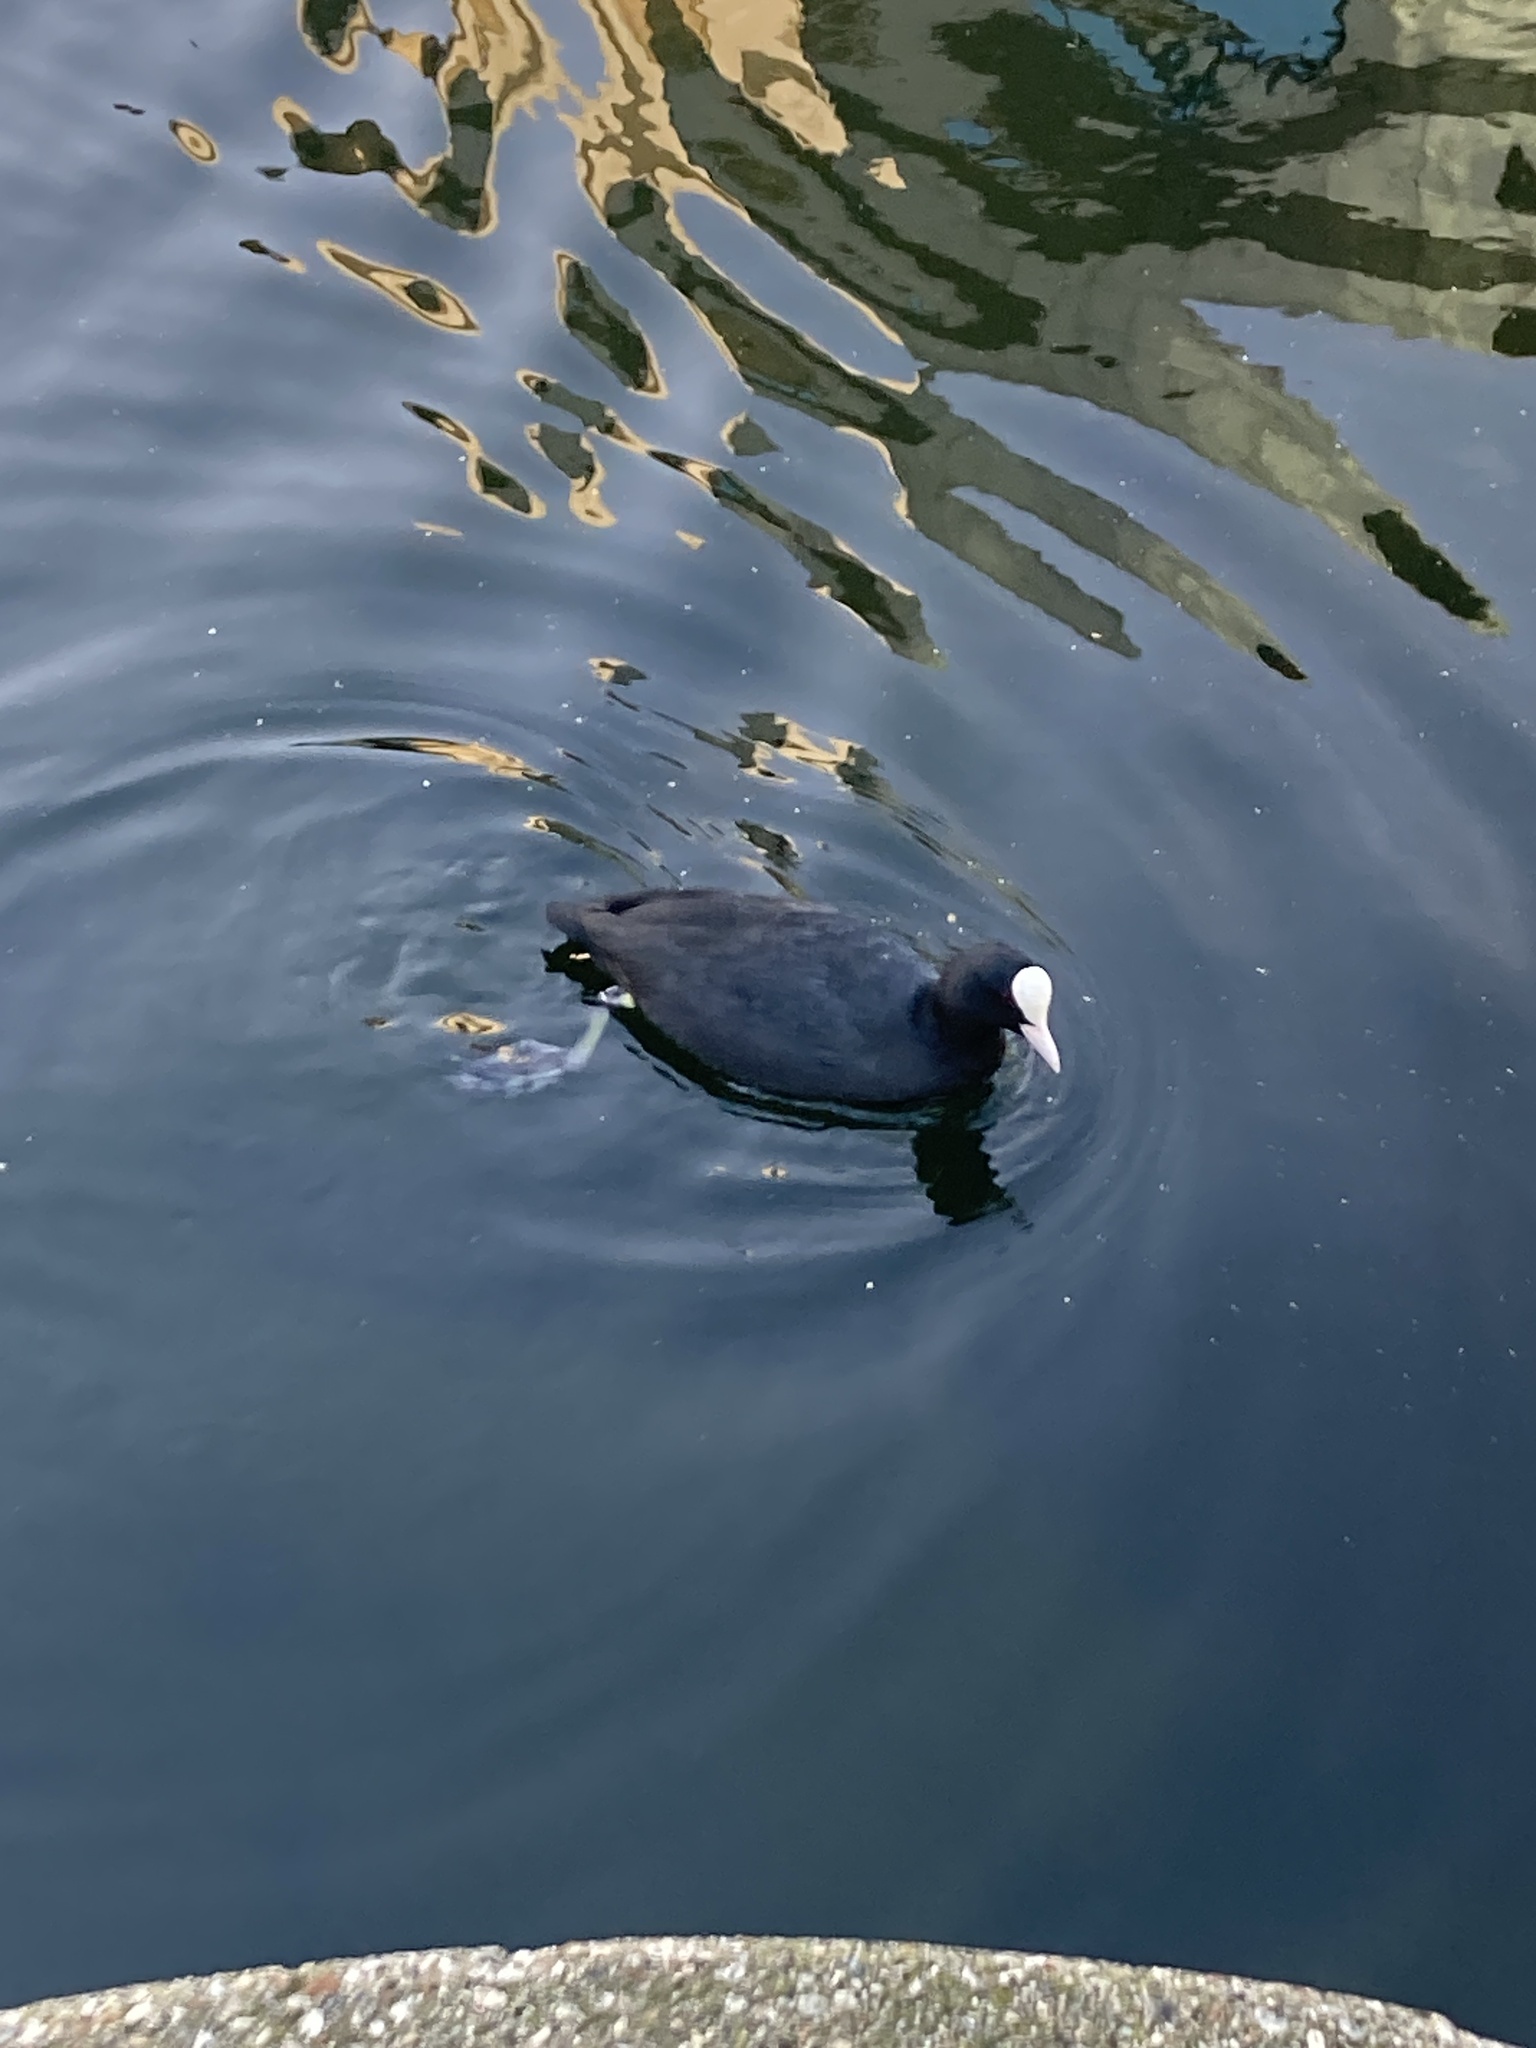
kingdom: Animalia
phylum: Chordata
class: Aves
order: Gruiformes
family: Rallidae
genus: Fulica
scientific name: Fulica atra
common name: Eurasian coot
